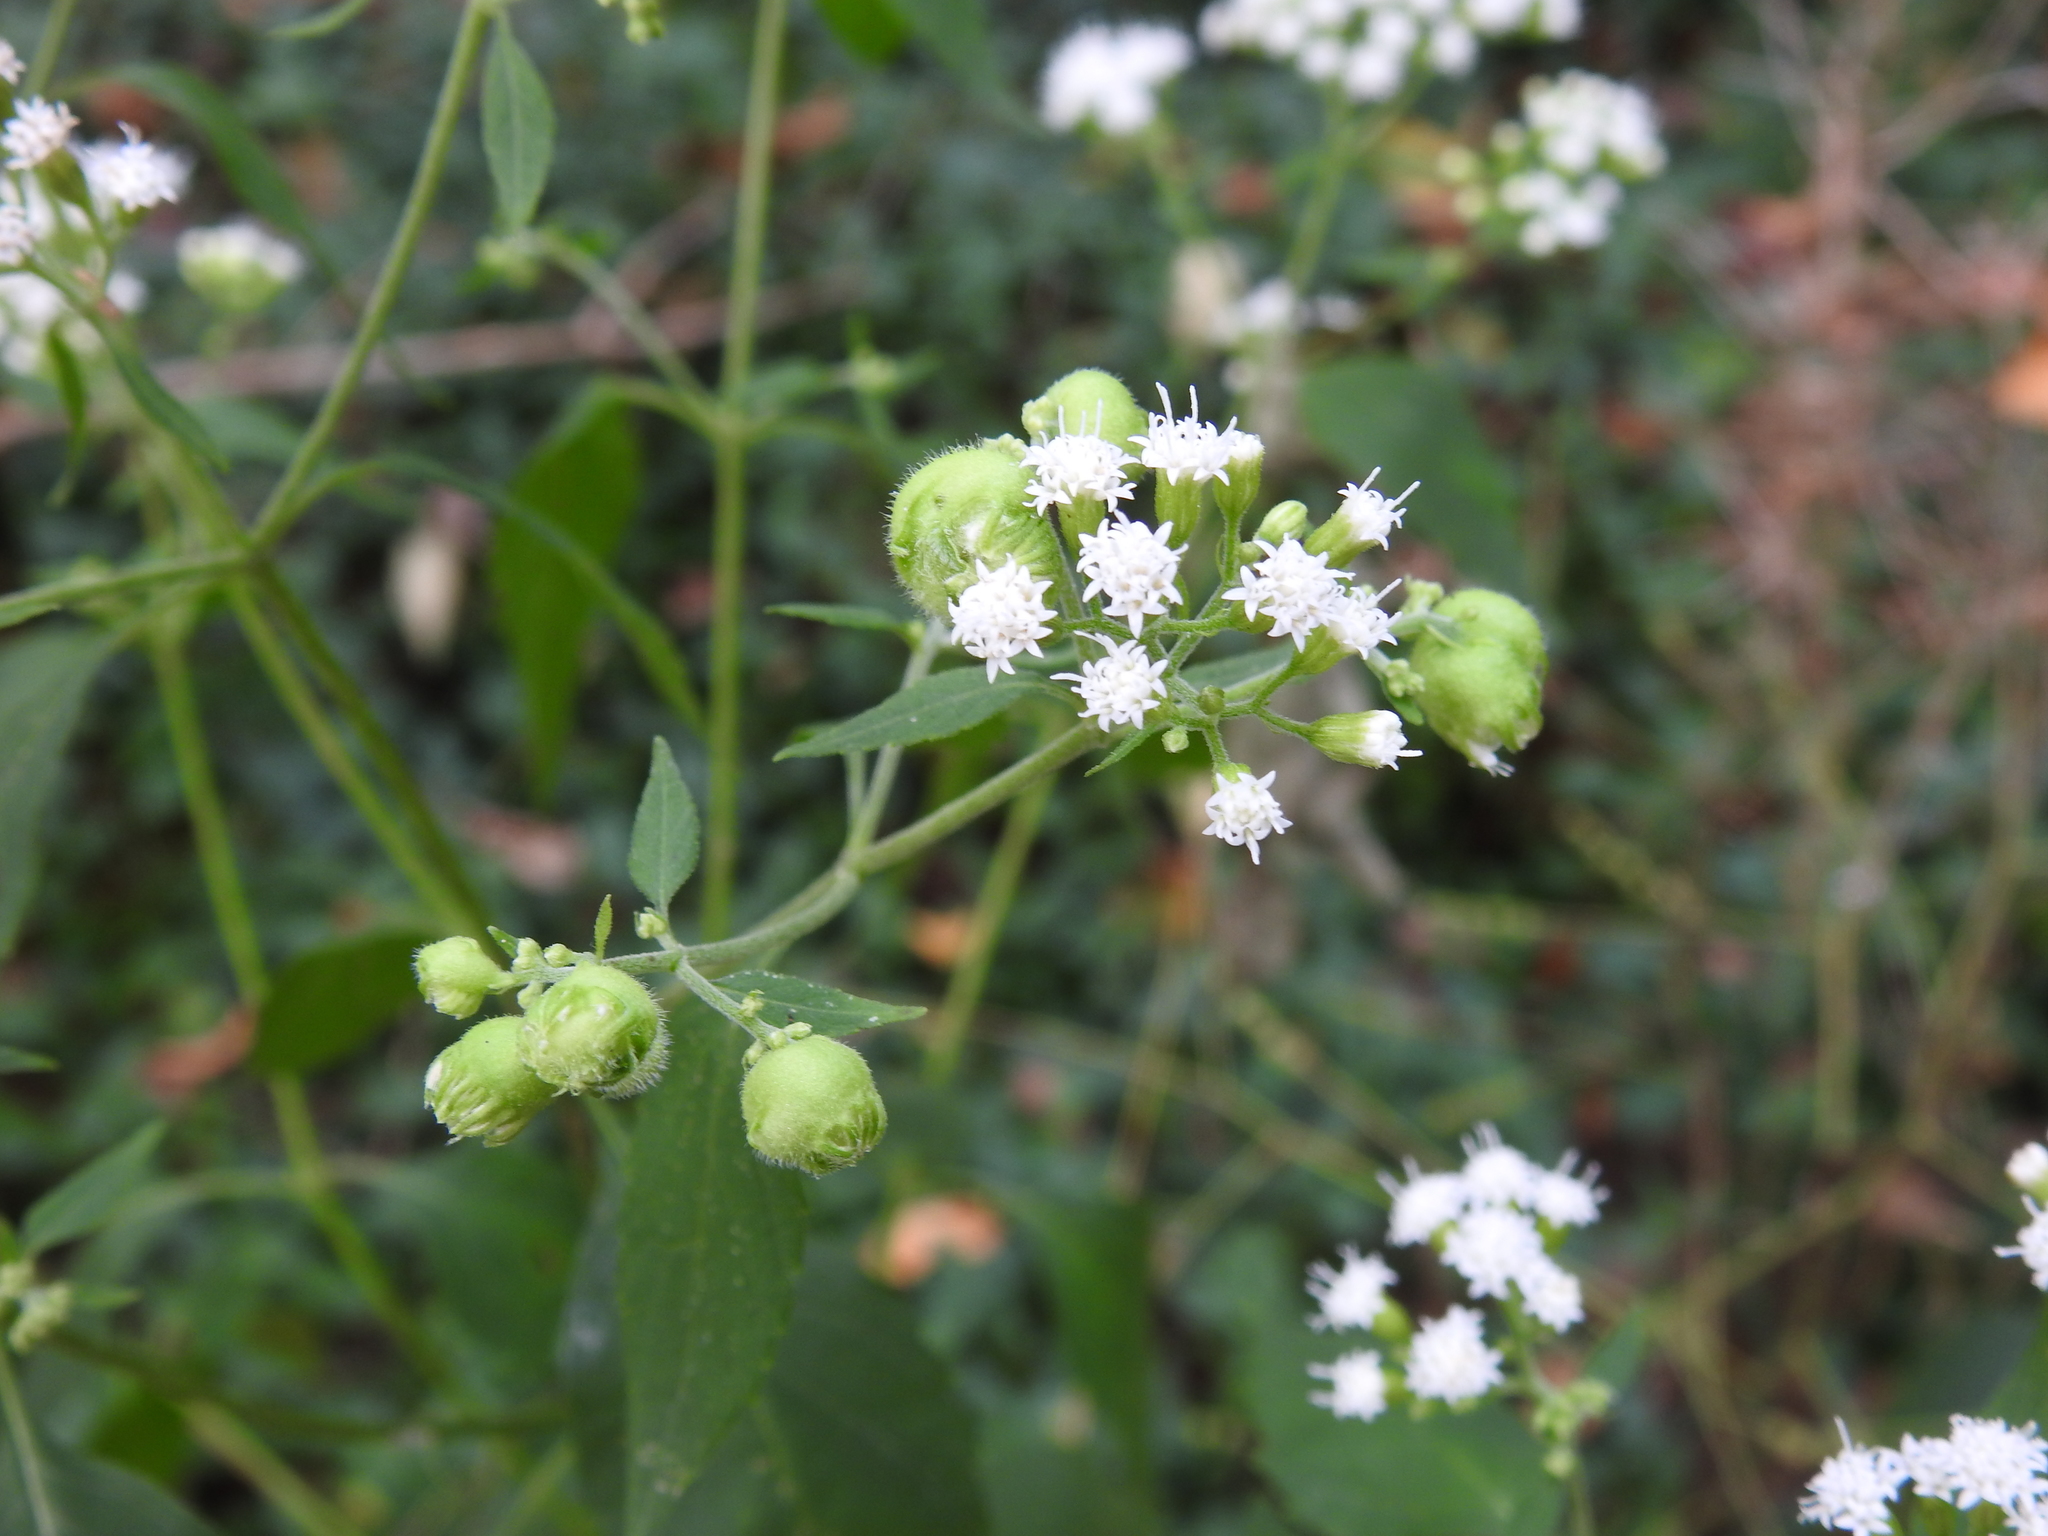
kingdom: Animalia
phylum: Arthropoda
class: Insecta
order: Diptera
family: Cecidomyiidae
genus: Schizomyia
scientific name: Schizomyia eupatoriflorae
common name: Boneset flower gall midge
